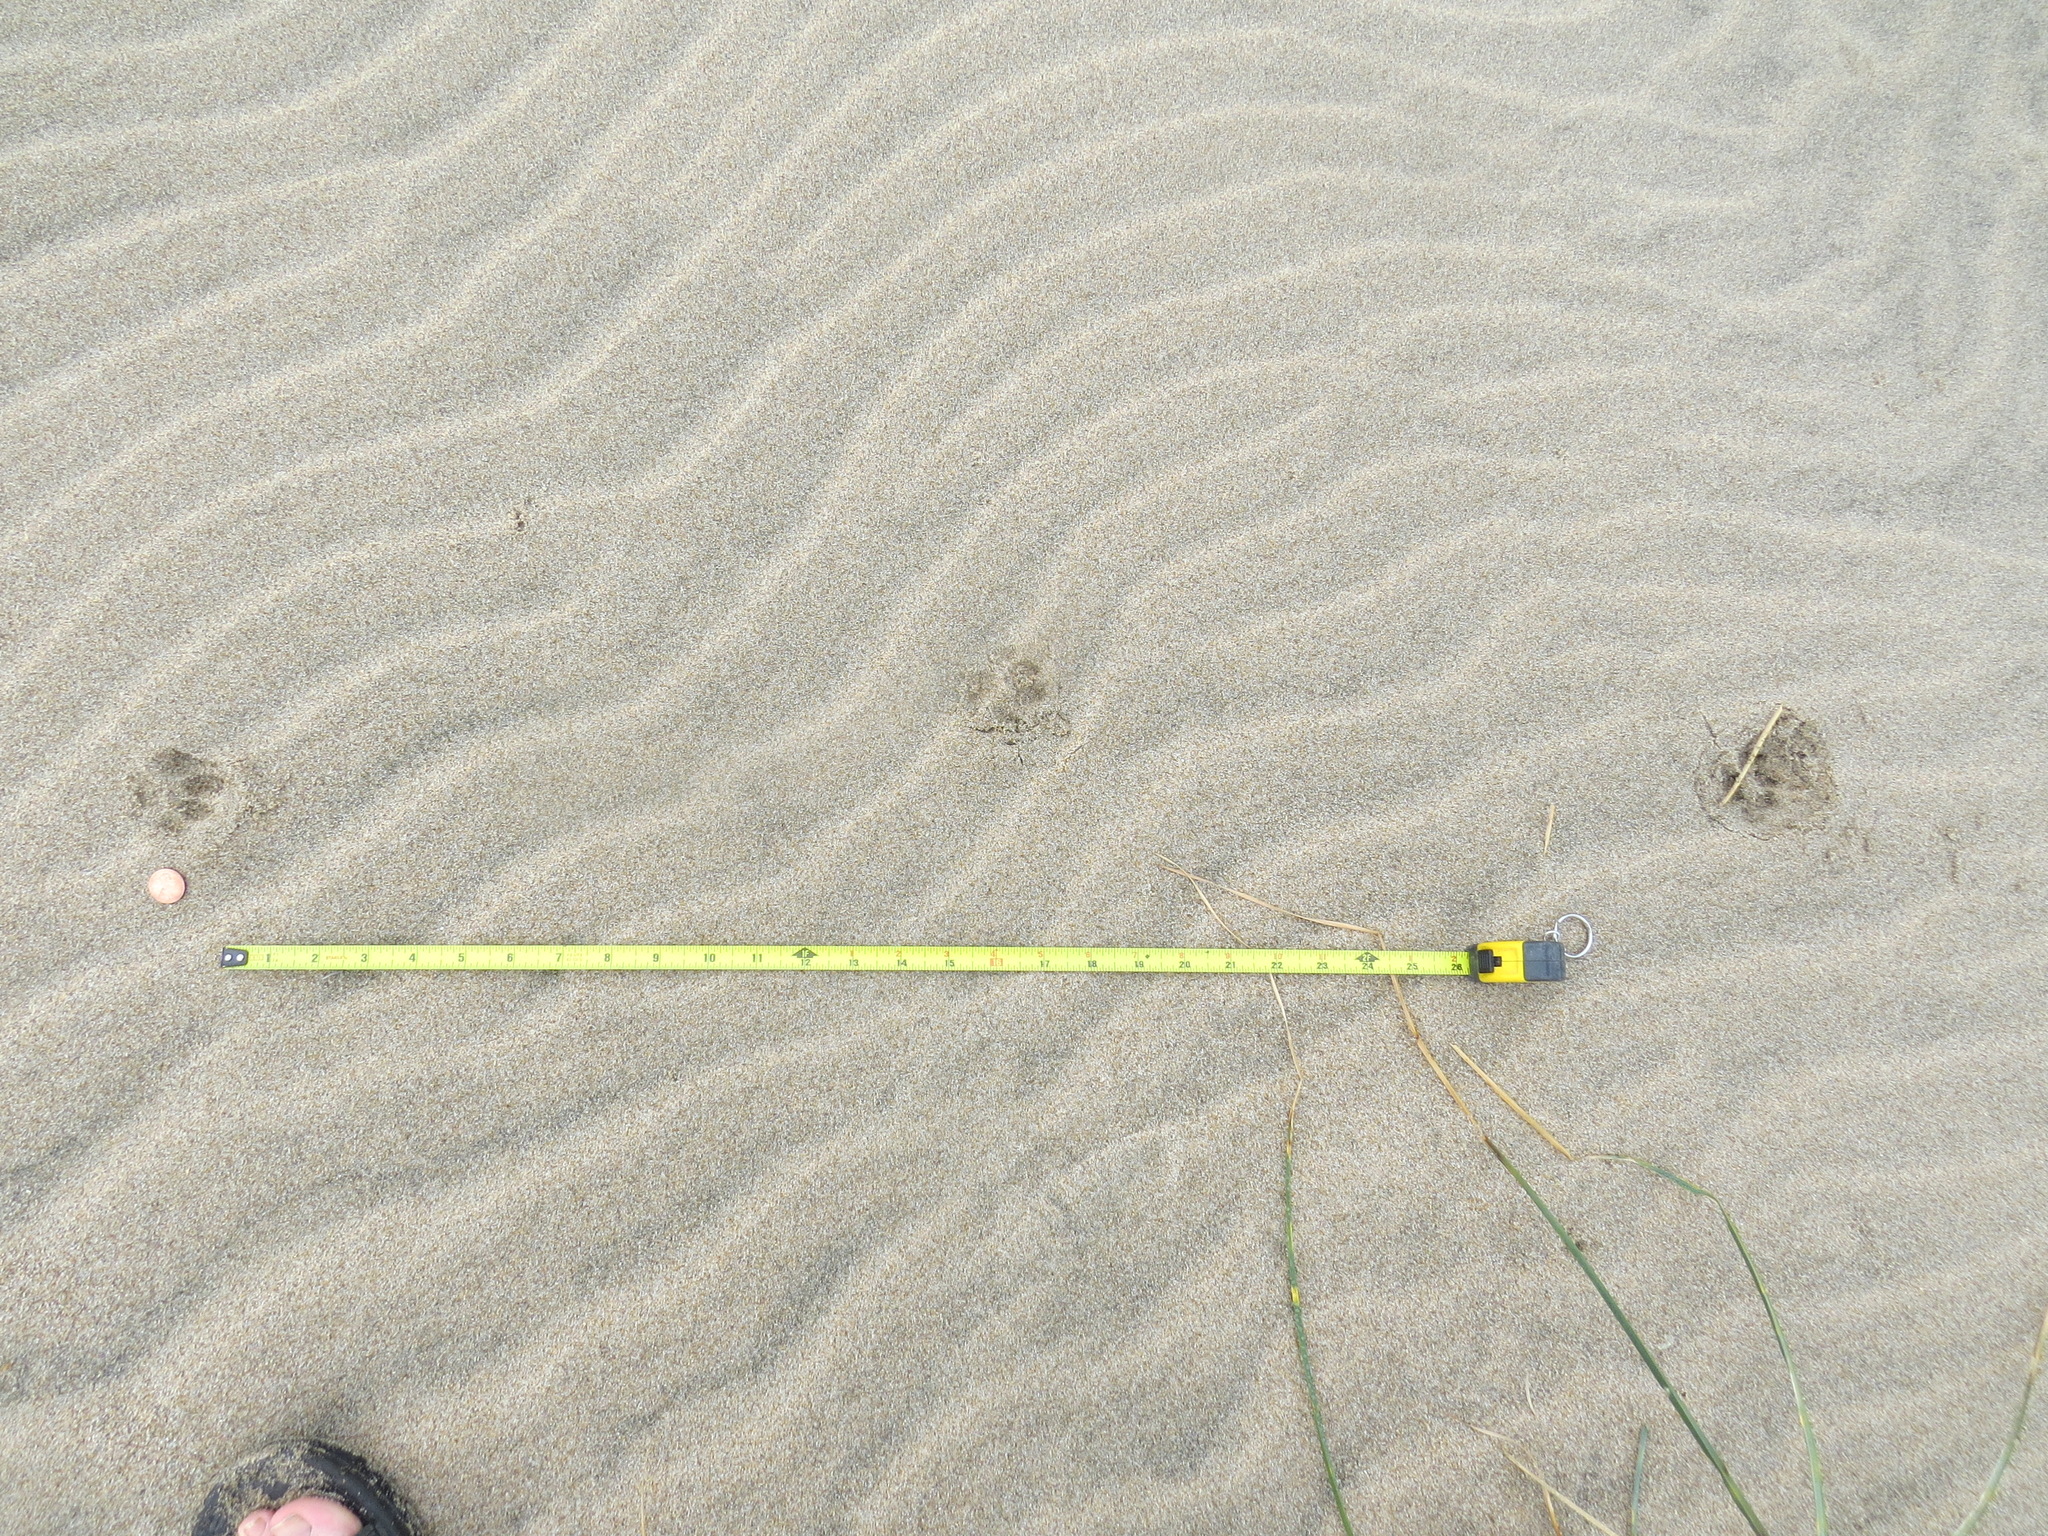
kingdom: Animalia
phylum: Chordata
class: Mammalia
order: Carnivora
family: Felidae
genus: Lynx
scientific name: Lynx rufus
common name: Bobcat
